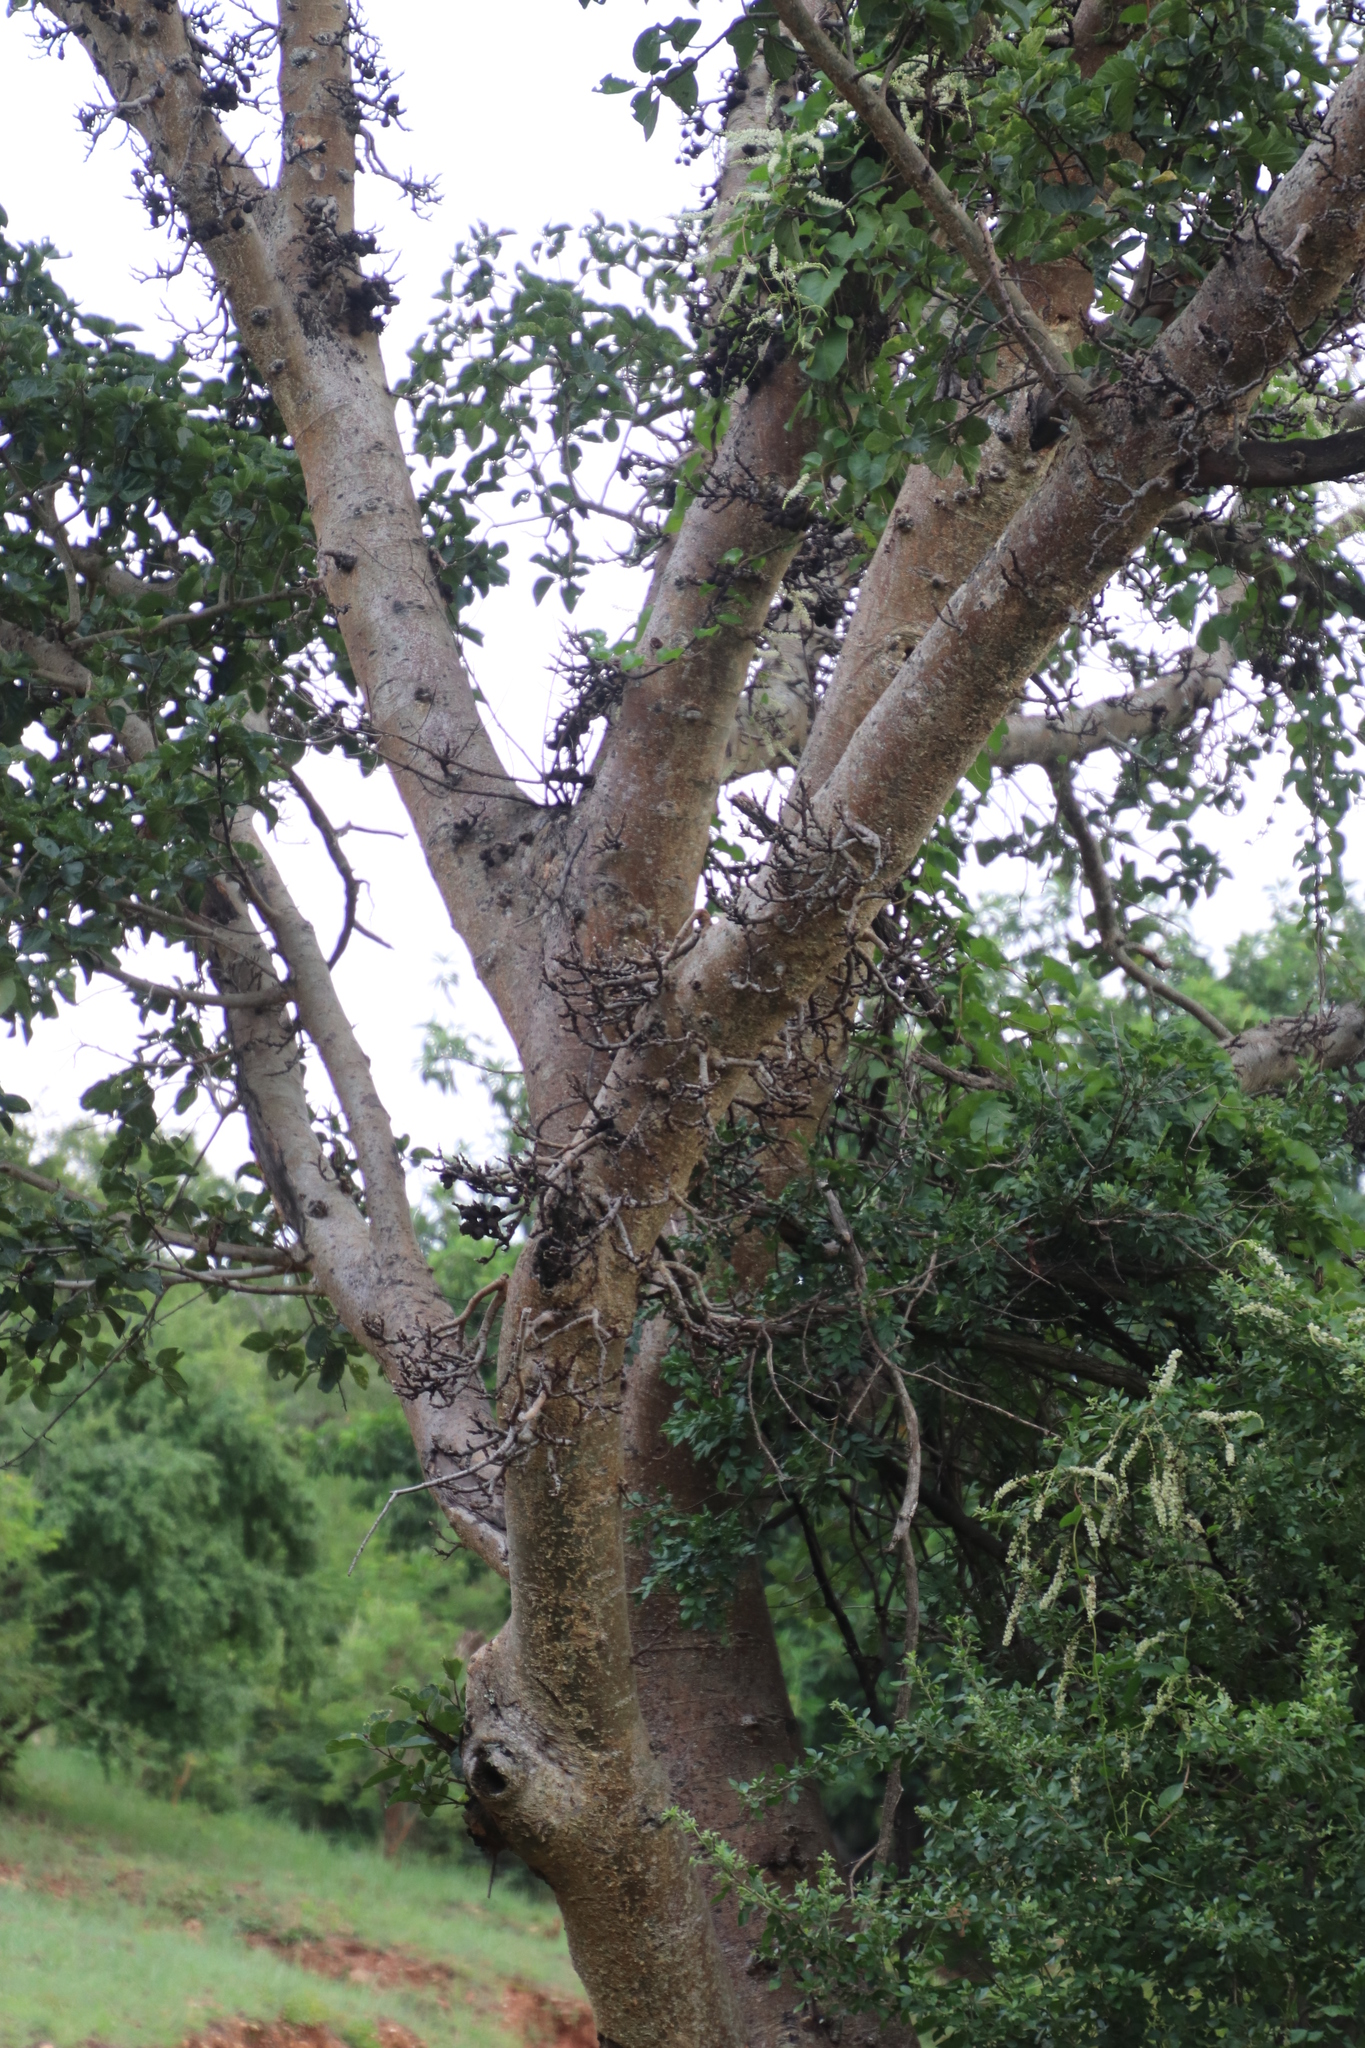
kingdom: Plantae
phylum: Tracheophyta
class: Magnoliopsida
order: Rosales
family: Moraceae
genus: Ficus
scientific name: Ficus sycomorus
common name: Sycomore
